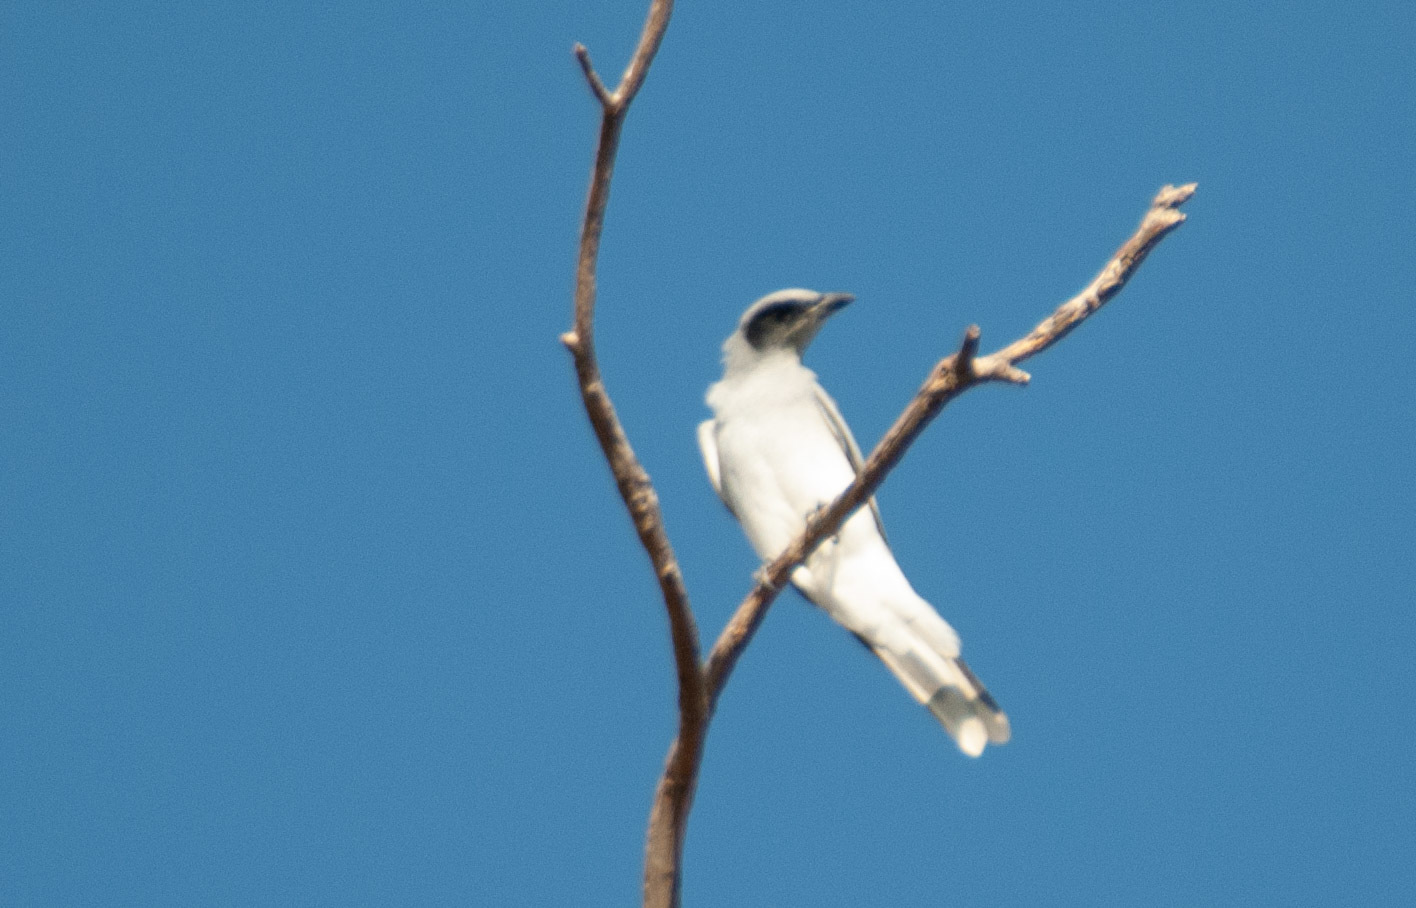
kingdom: Animalia
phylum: Chordata
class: Aves
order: Passeriformes
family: Campephagidae
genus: Coracina
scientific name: Coracina novaehollandiae
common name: Black-faced cuckooshrike
